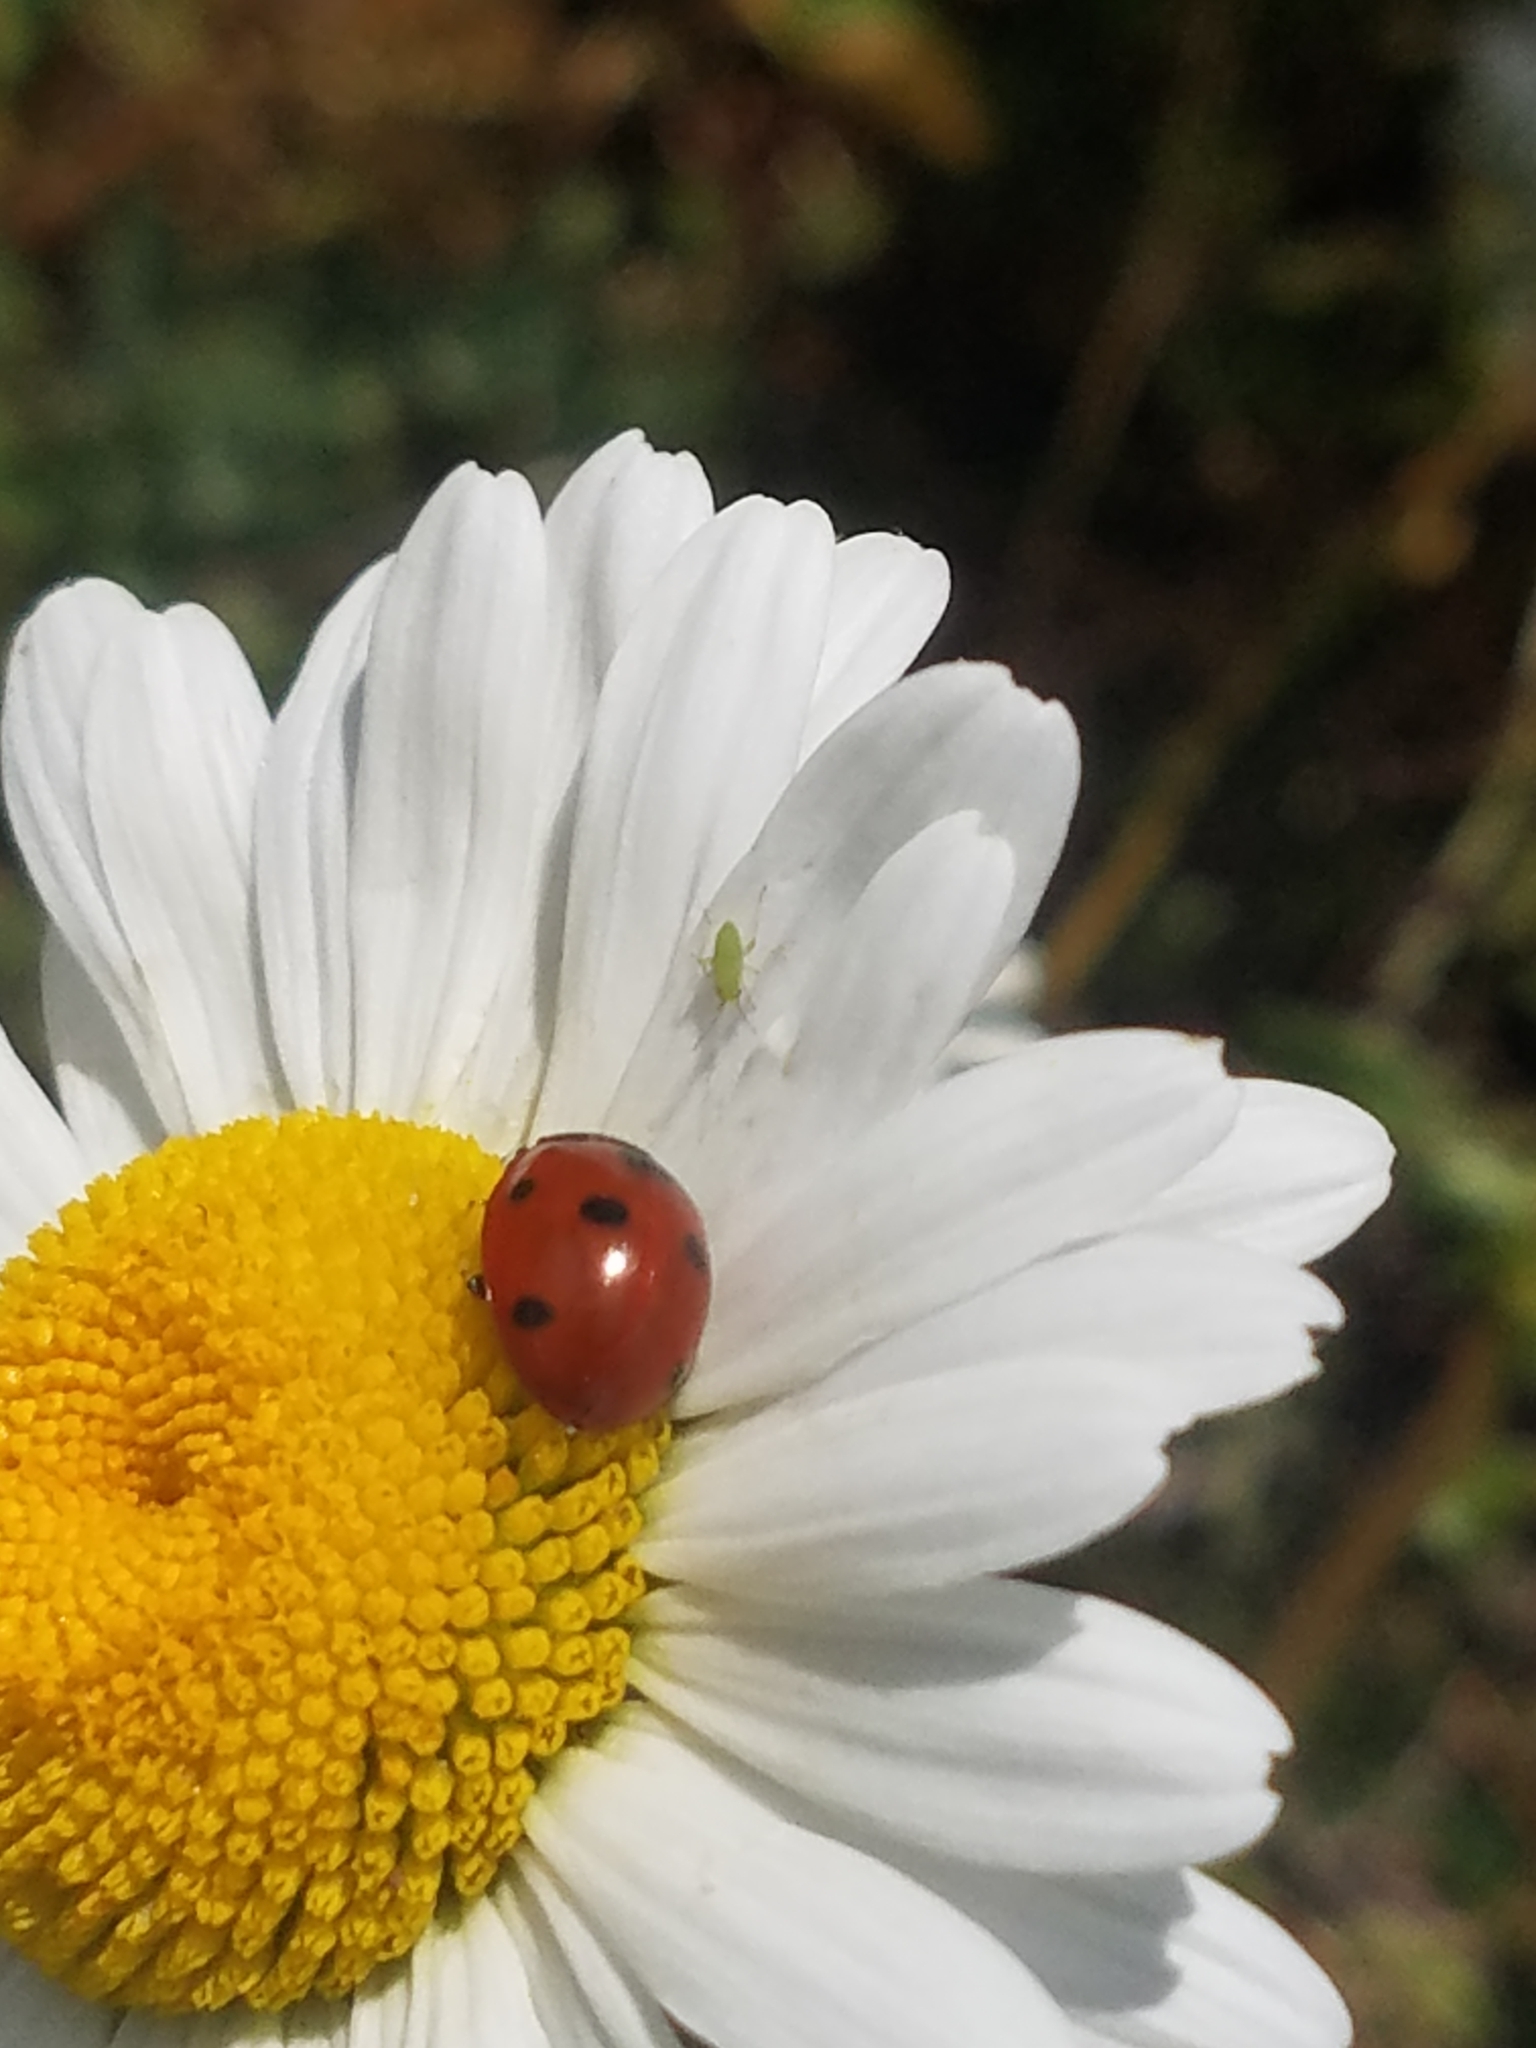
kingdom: Animalia
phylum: Arthropoda
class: Insecta
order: Coleoptera
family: Coccinellidae
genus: Coccinella
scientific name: Coccinella septempunctata
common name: Sevenspotted lady beetle
